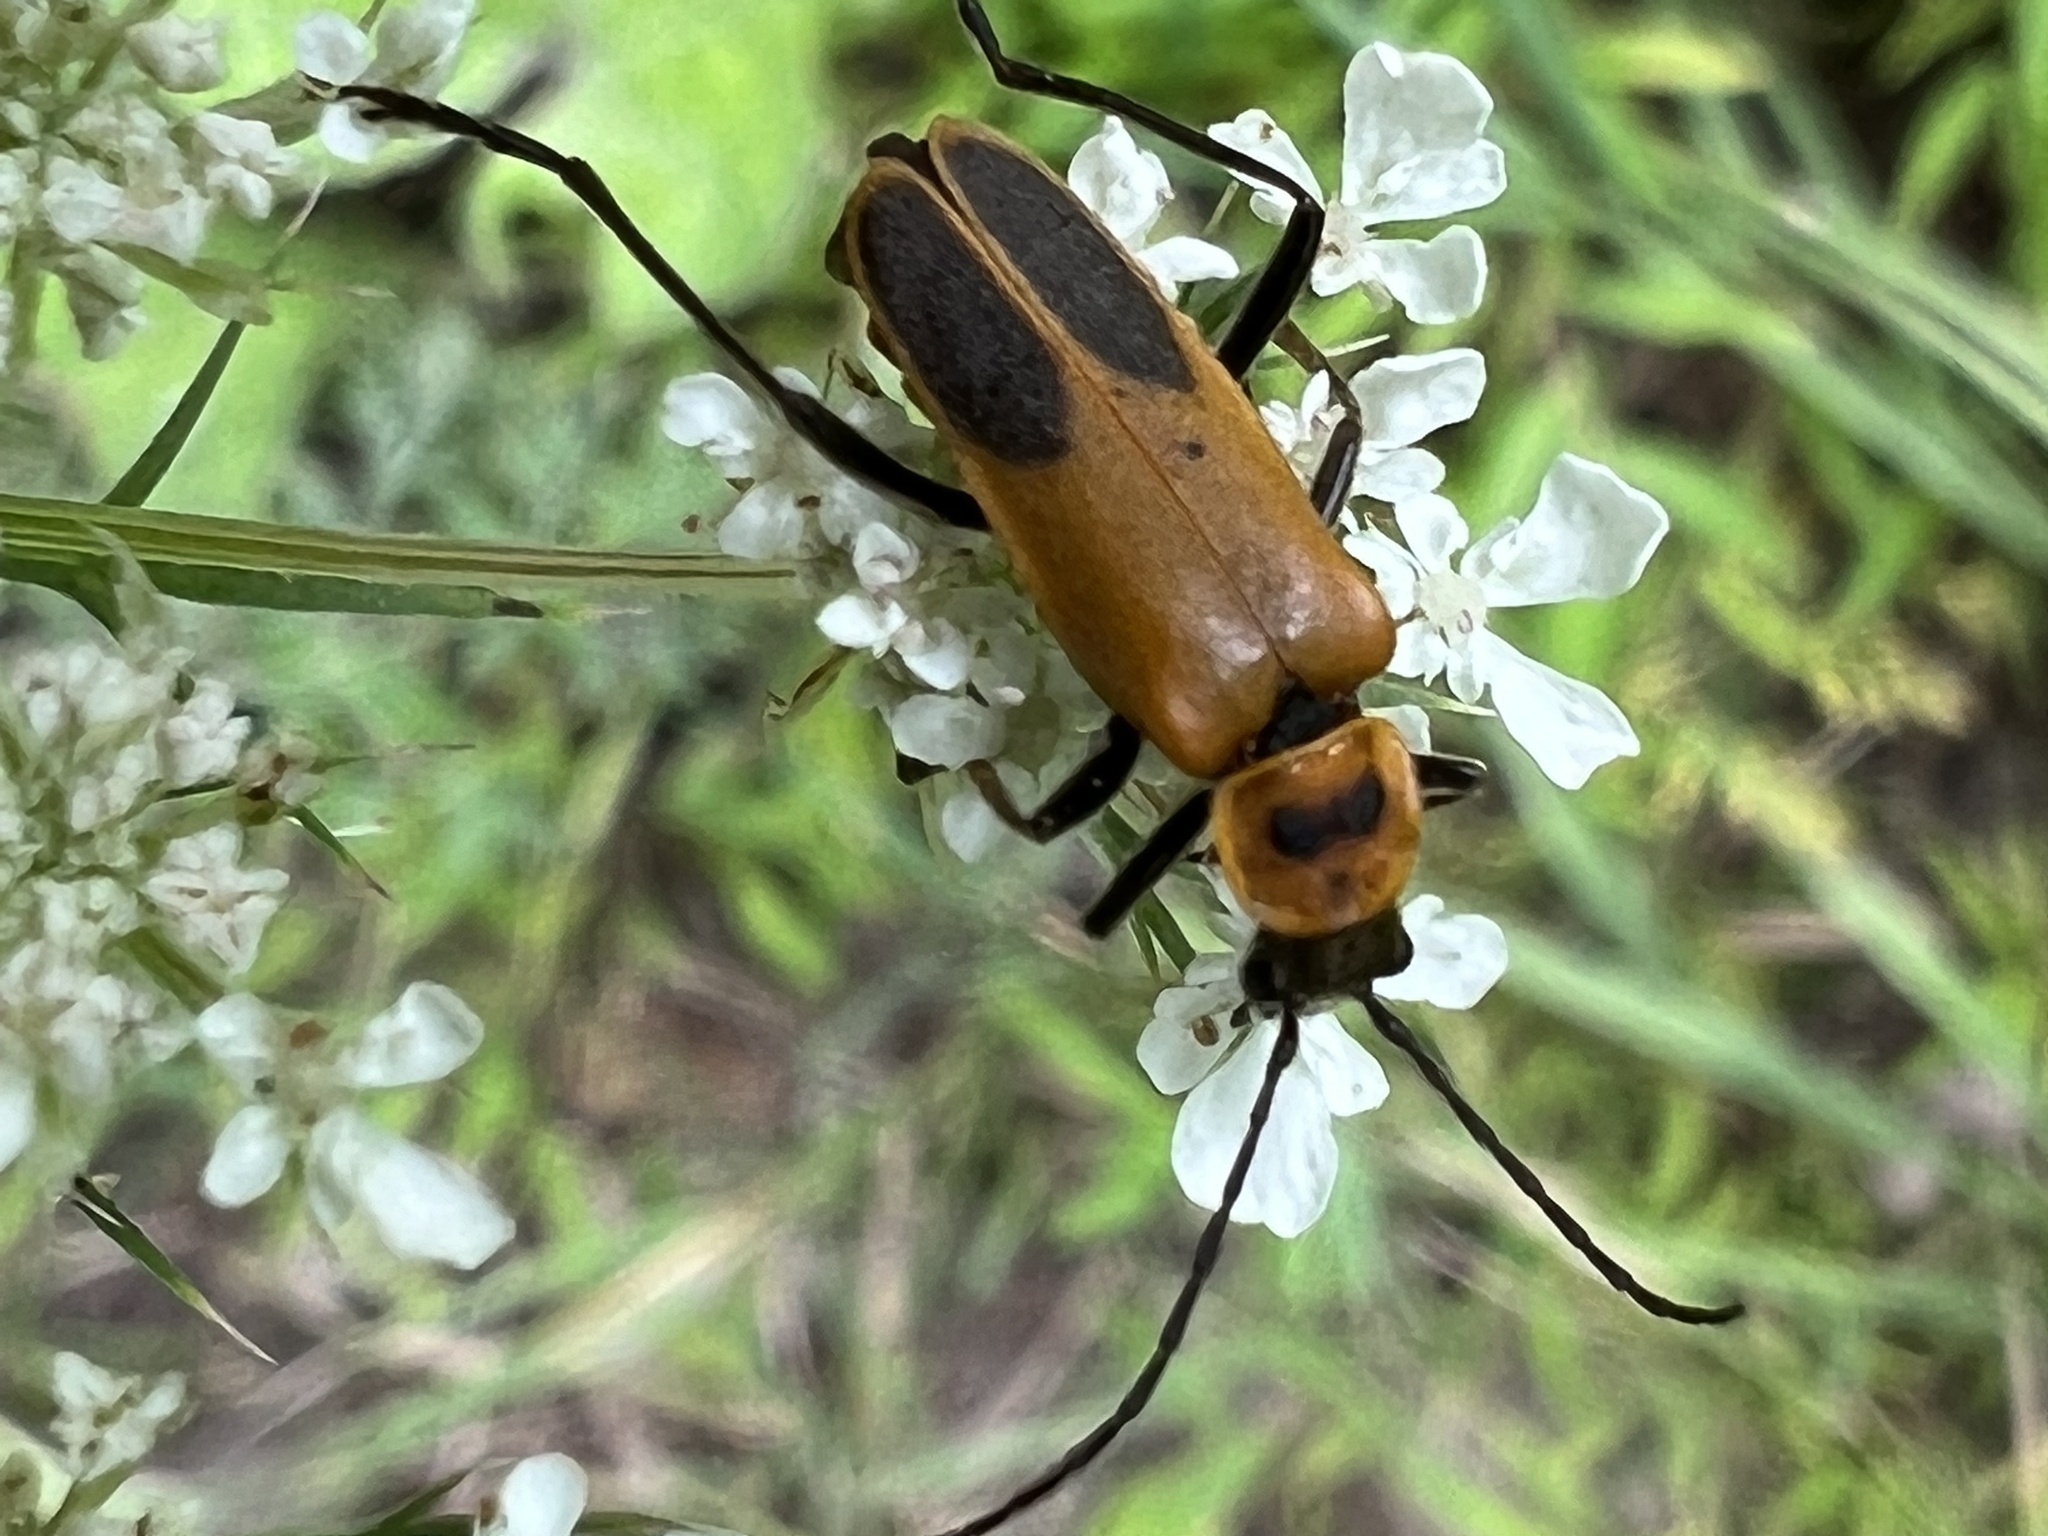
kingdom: Animalia
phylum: Arthropoda
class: Insecta
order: Coleoptera
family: Cantharidae
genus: Chauliognathus
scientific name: Chauliognathus pensylvanicus
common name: Goldenrod soldier beetle
